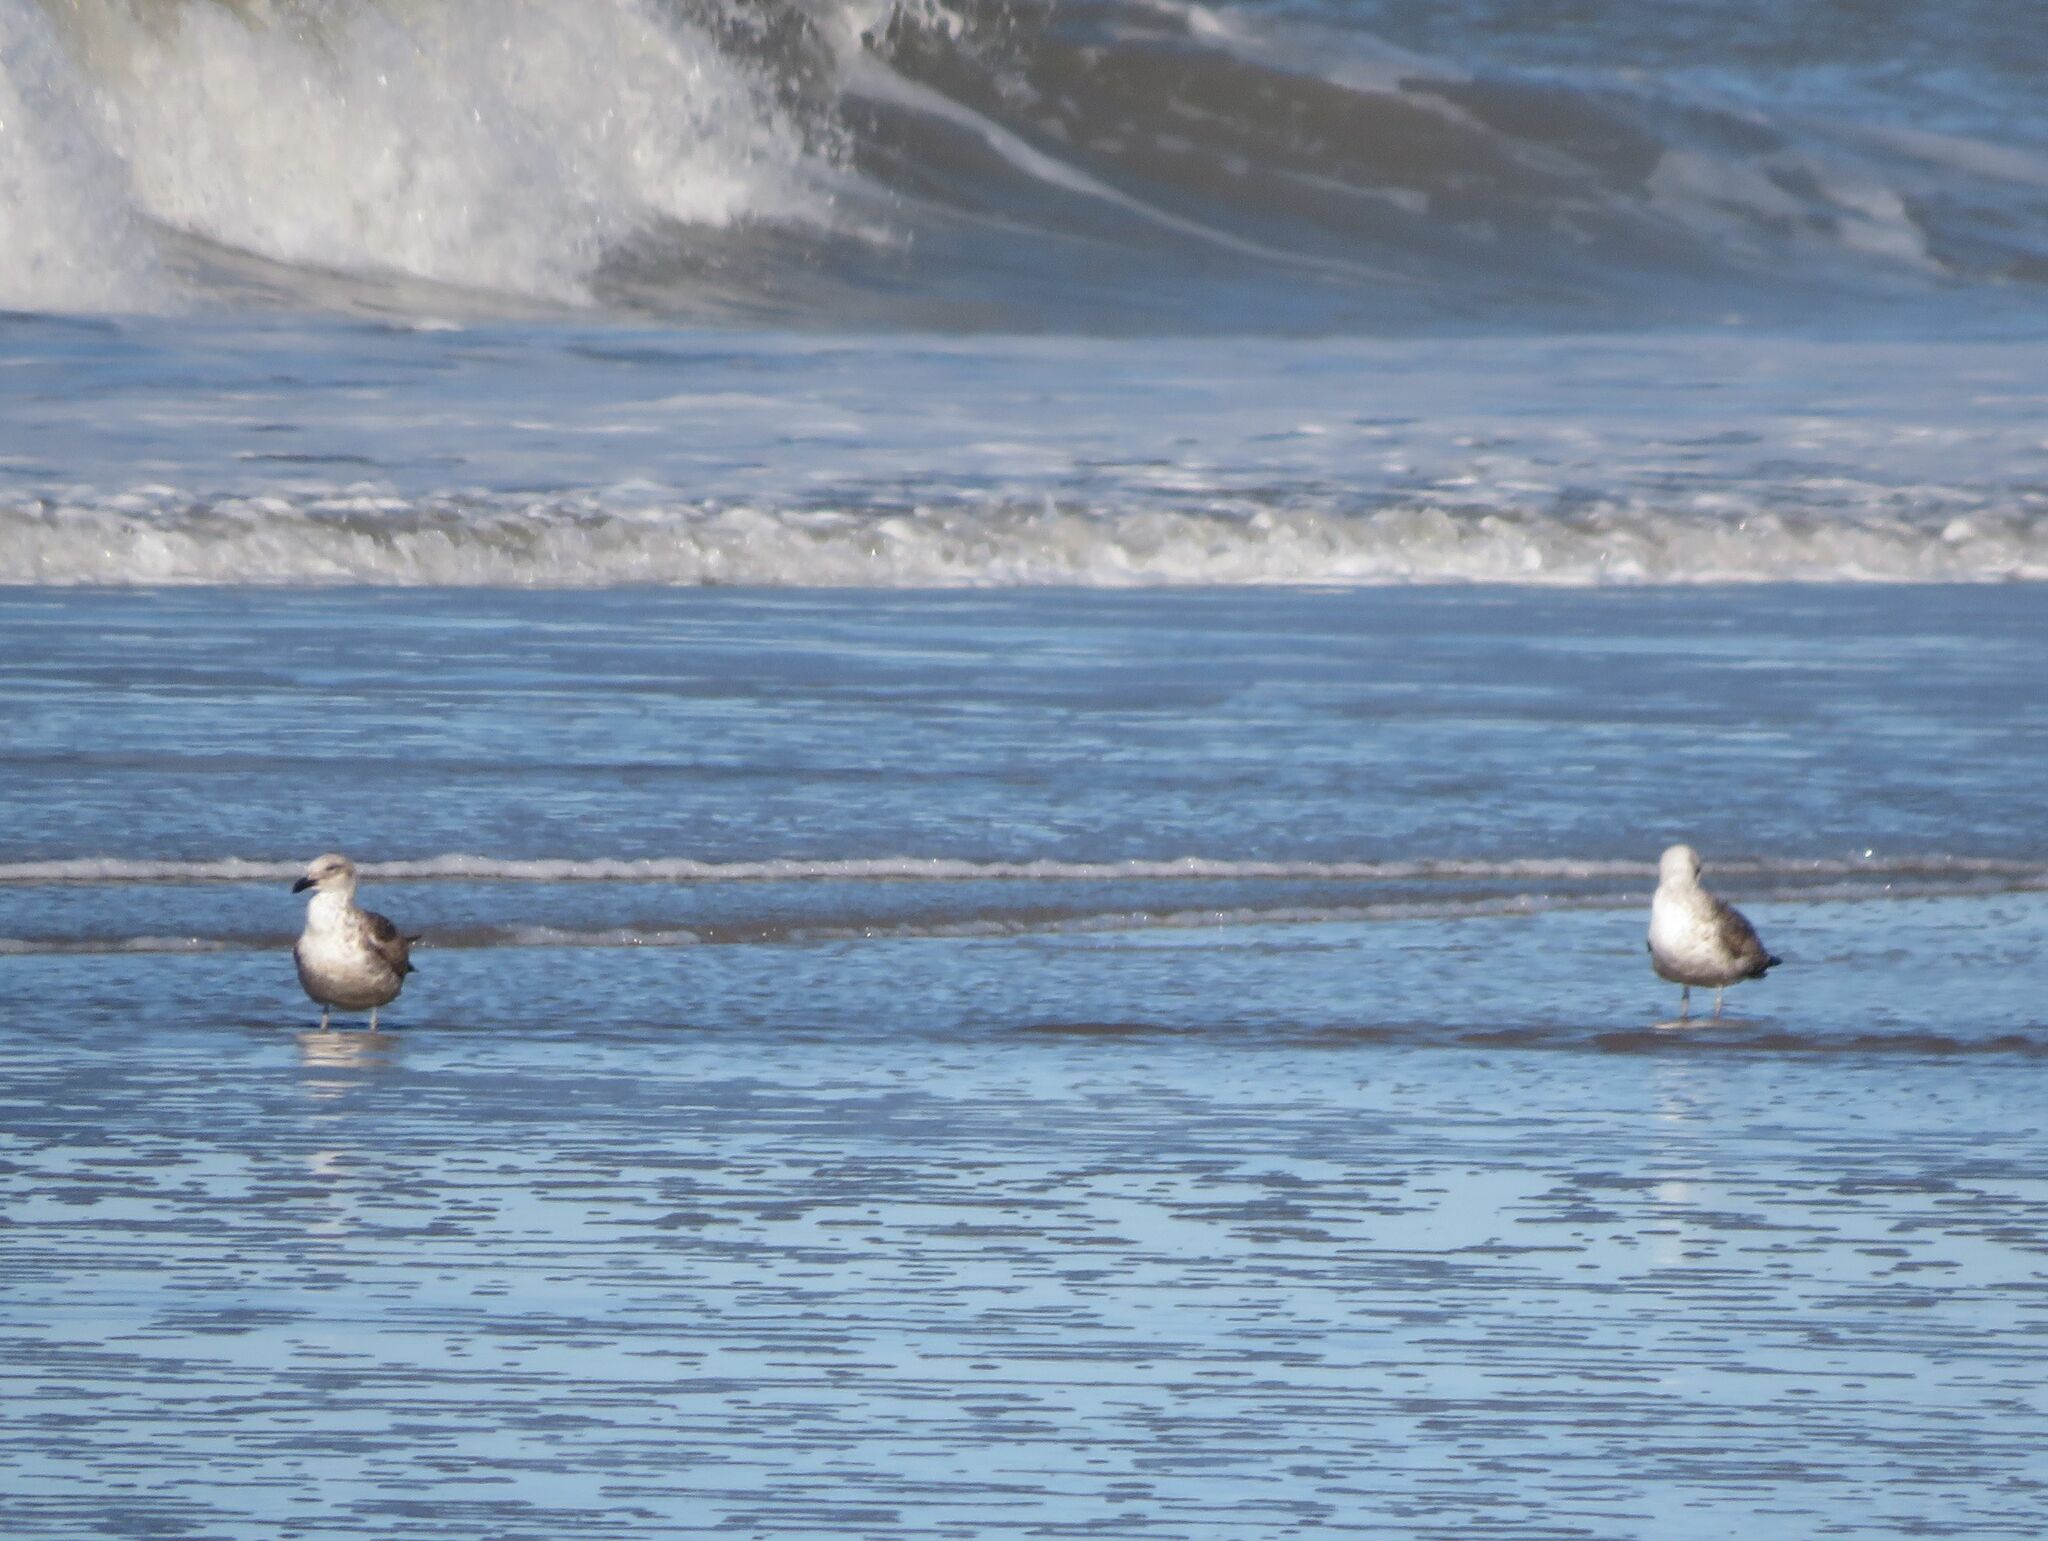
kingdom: Animalia
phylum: Chordata
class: Aves
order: Charadriiformes
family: Laridae
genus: Larus
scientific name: Larus dominicanus
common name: Kelp gull
